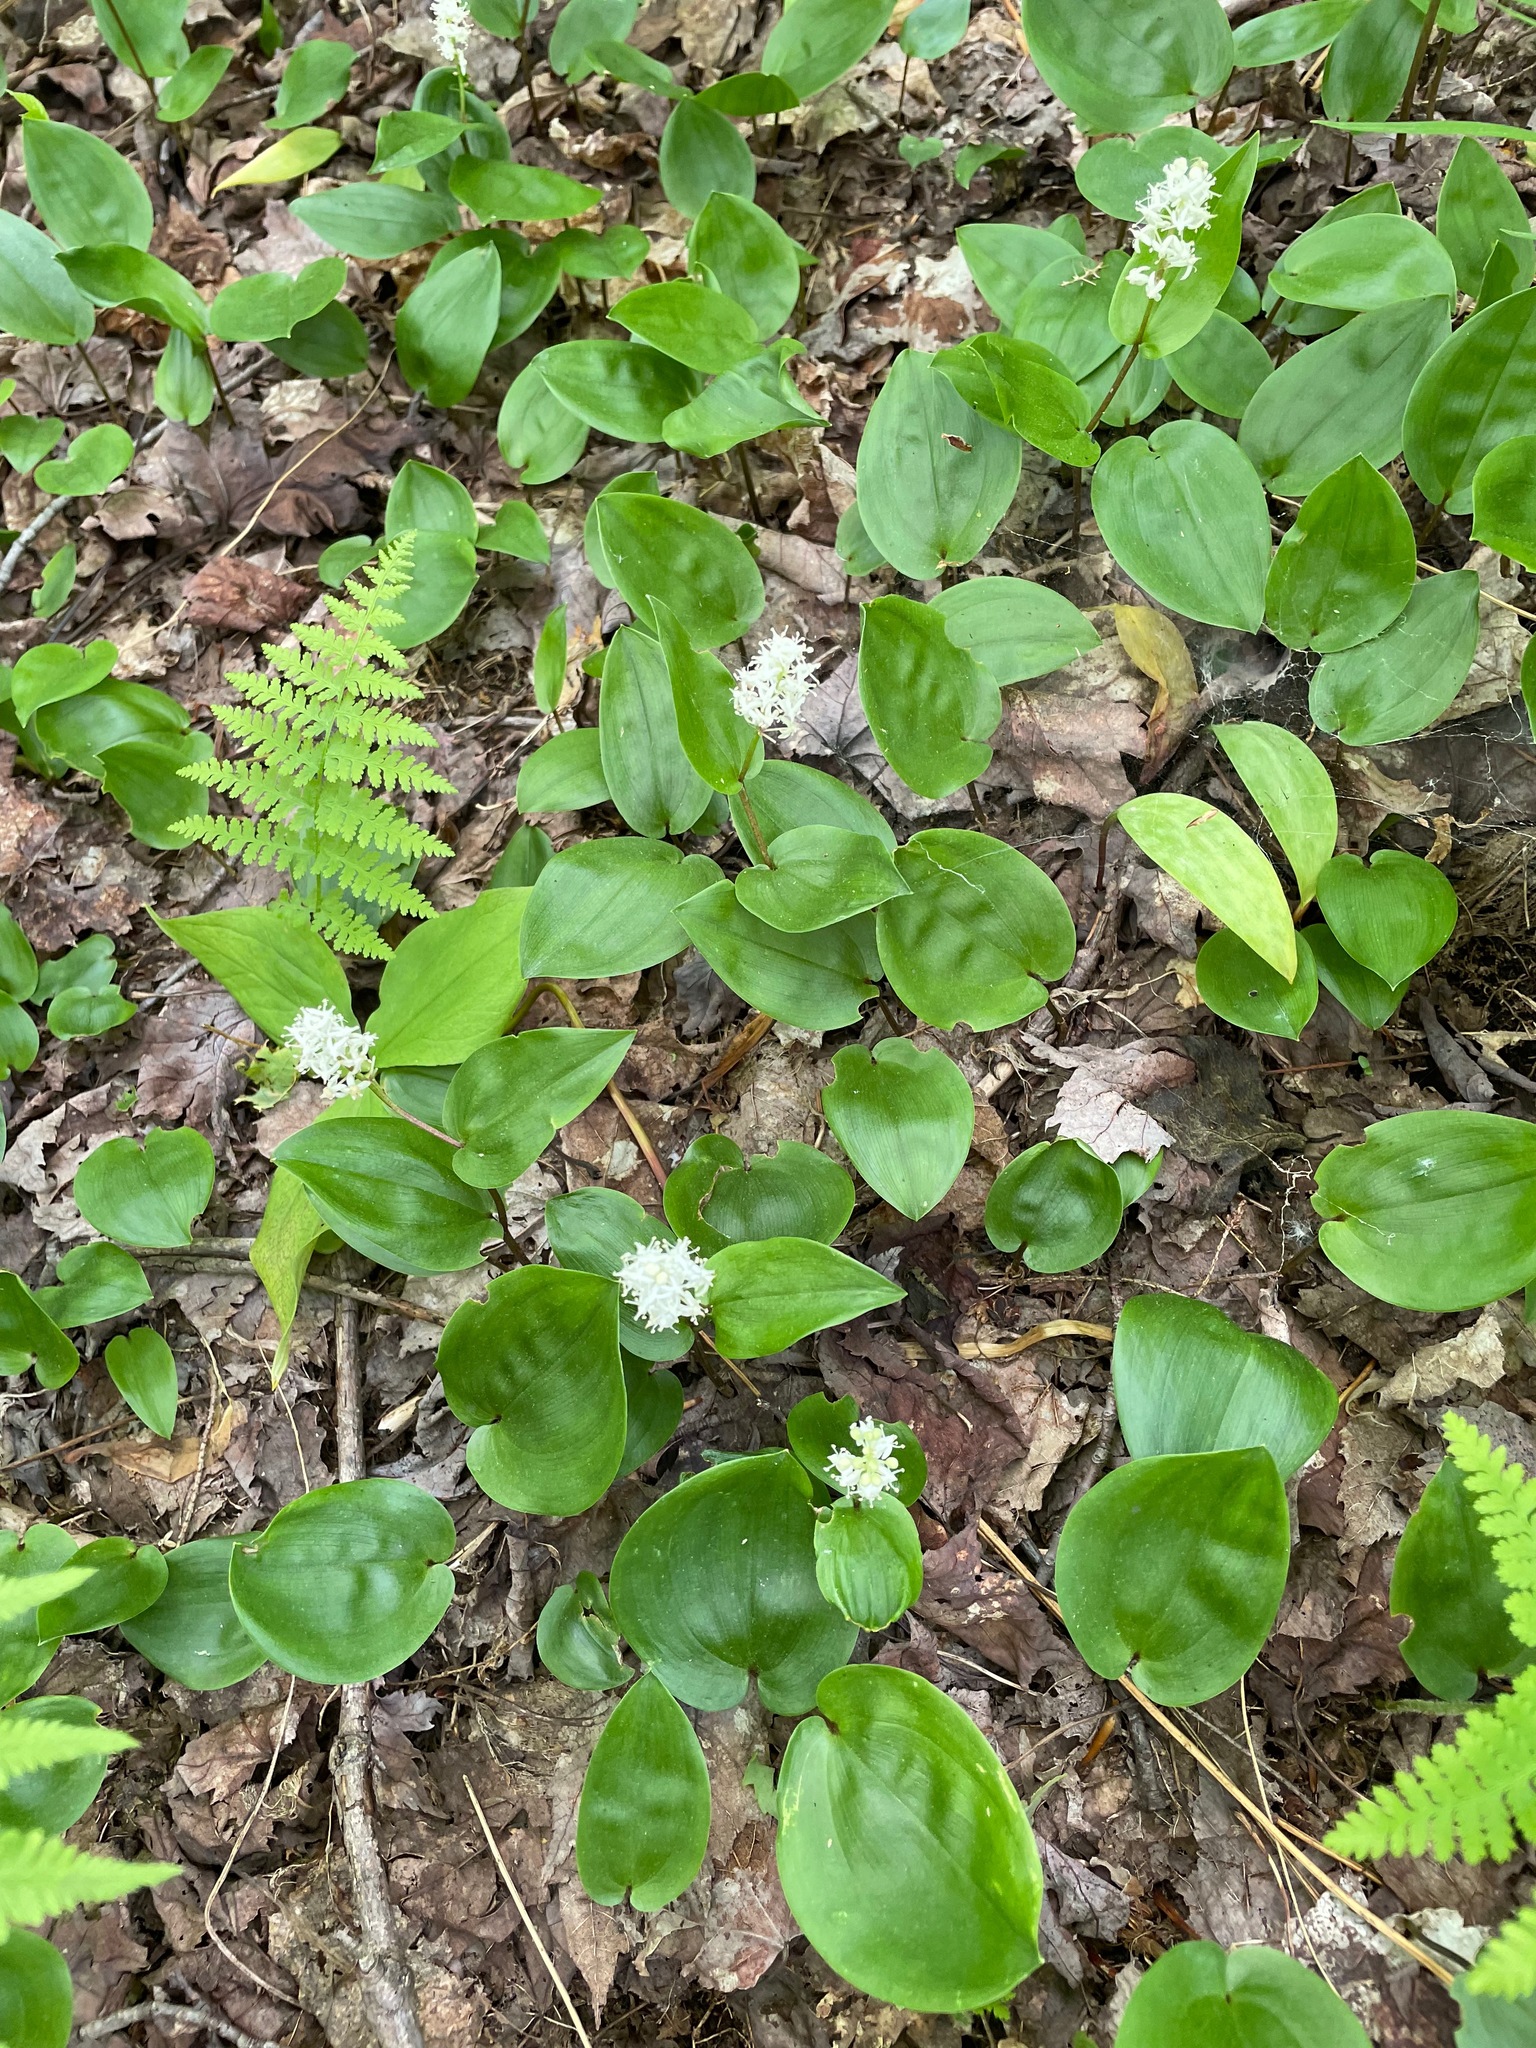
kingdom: Plantae
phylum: Tracheophyta
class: Liliopsida
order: Asparagales
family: Asparagaceae
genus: Maianthemum
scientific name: Maianthemum canadense
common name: False lily-of-the-valley
